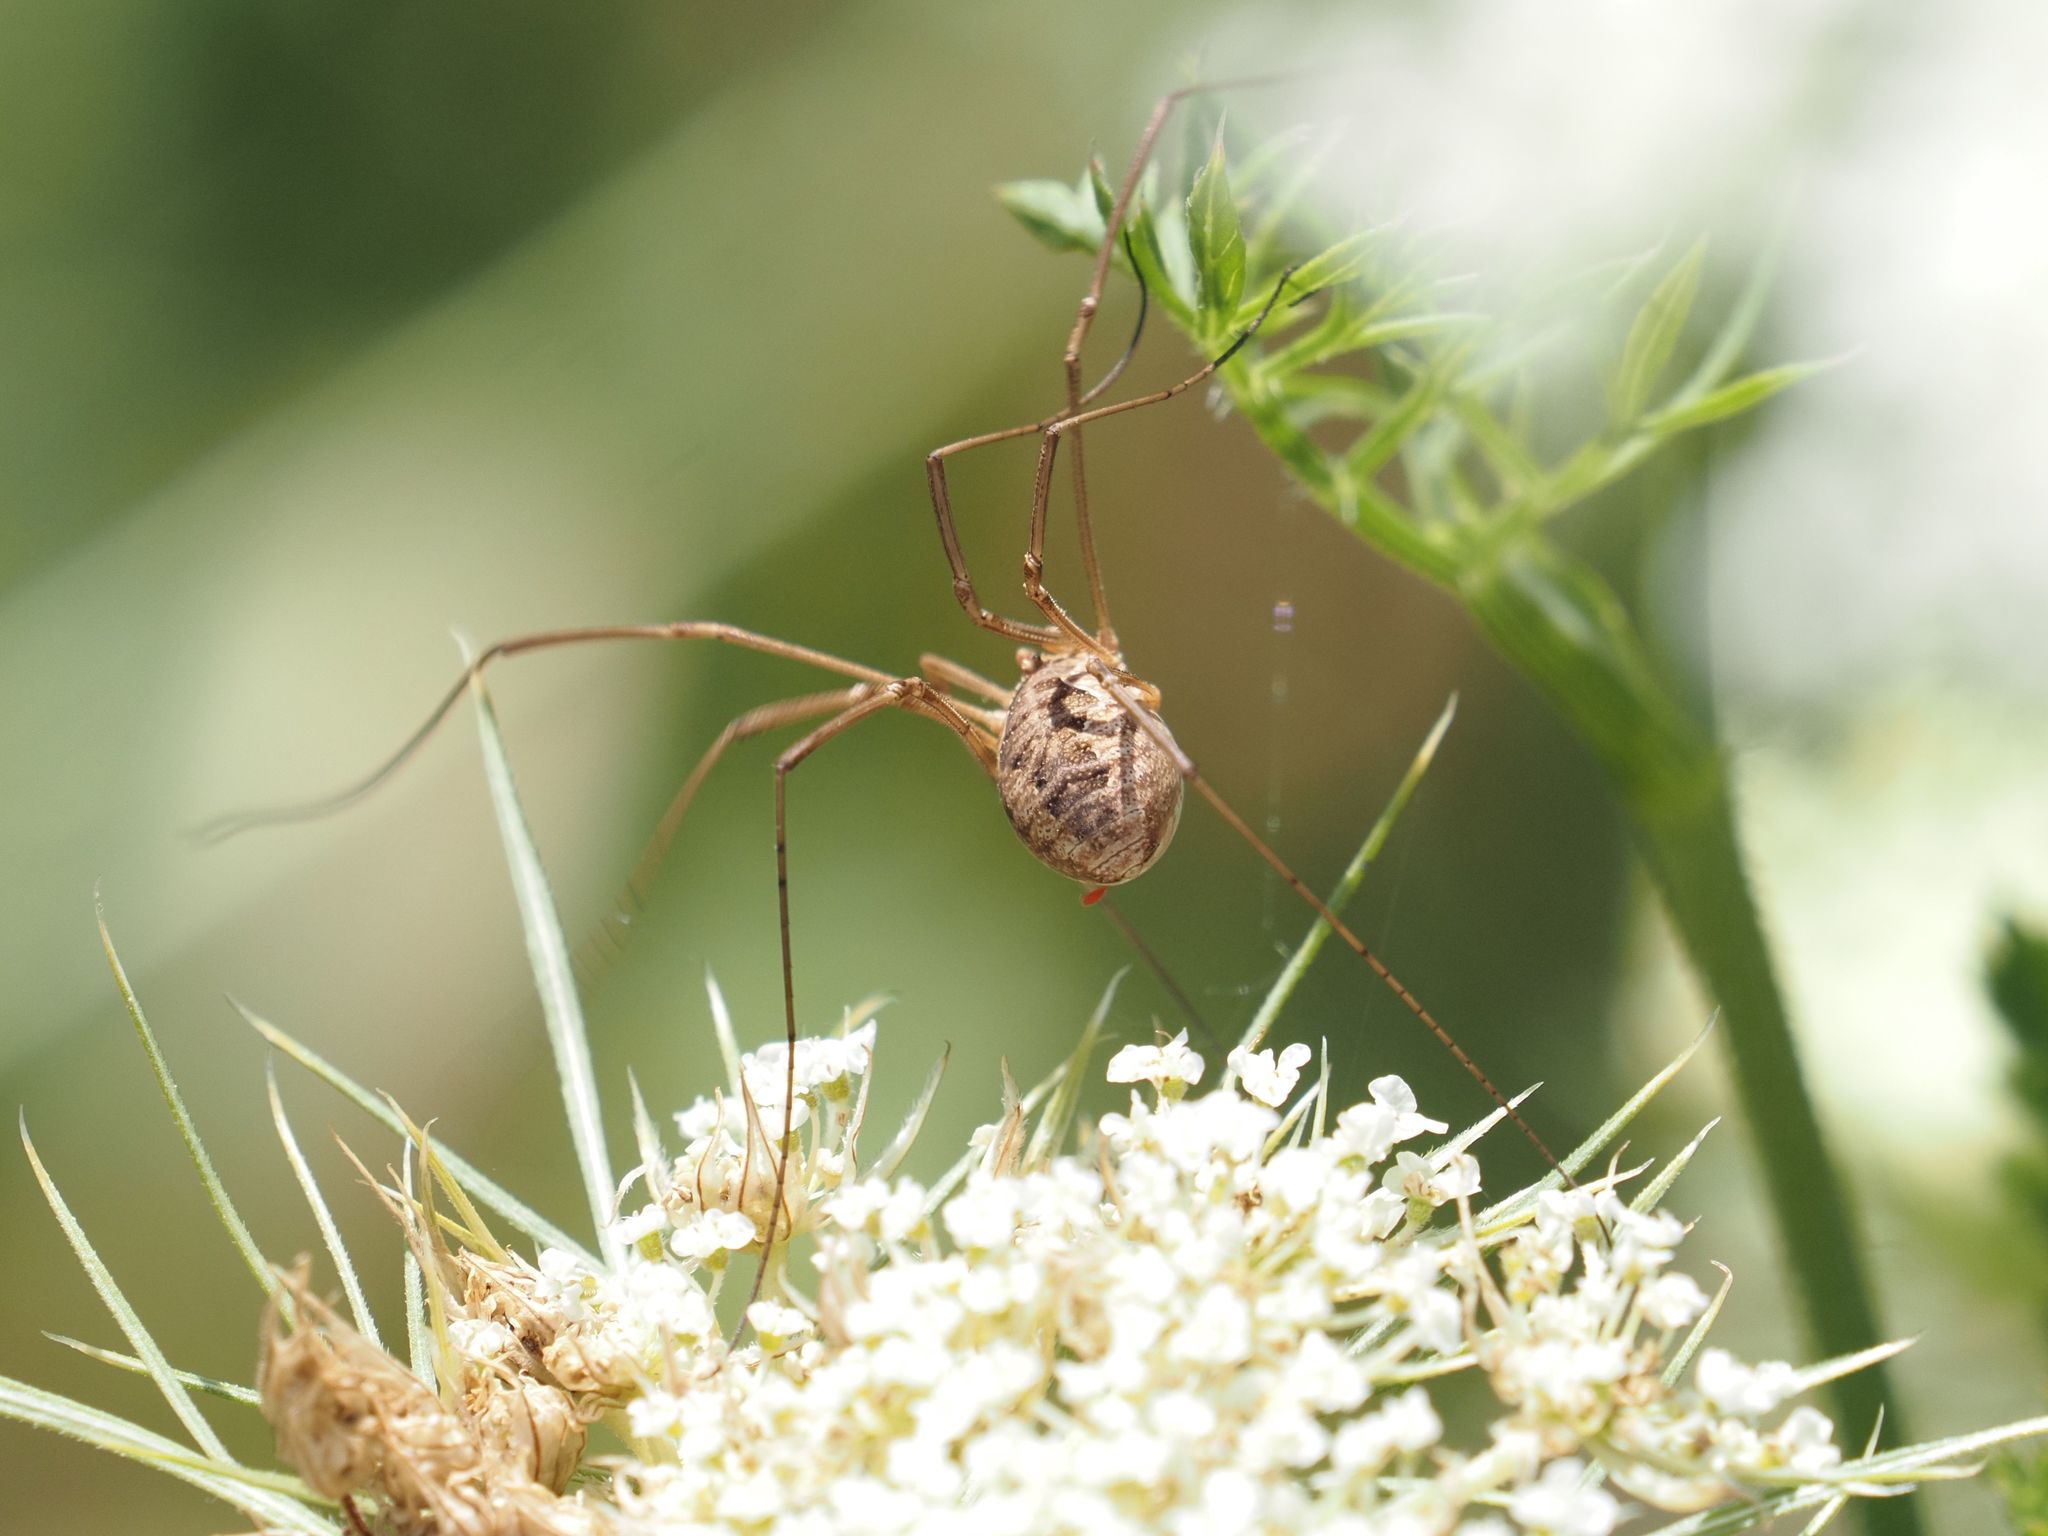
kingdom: Animalia
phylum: Arthropoda
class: Arachnida
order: Opiliones
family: Phalangiidae
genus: Phalangium
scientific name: Phalangium opilio
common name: Daddy longleg
